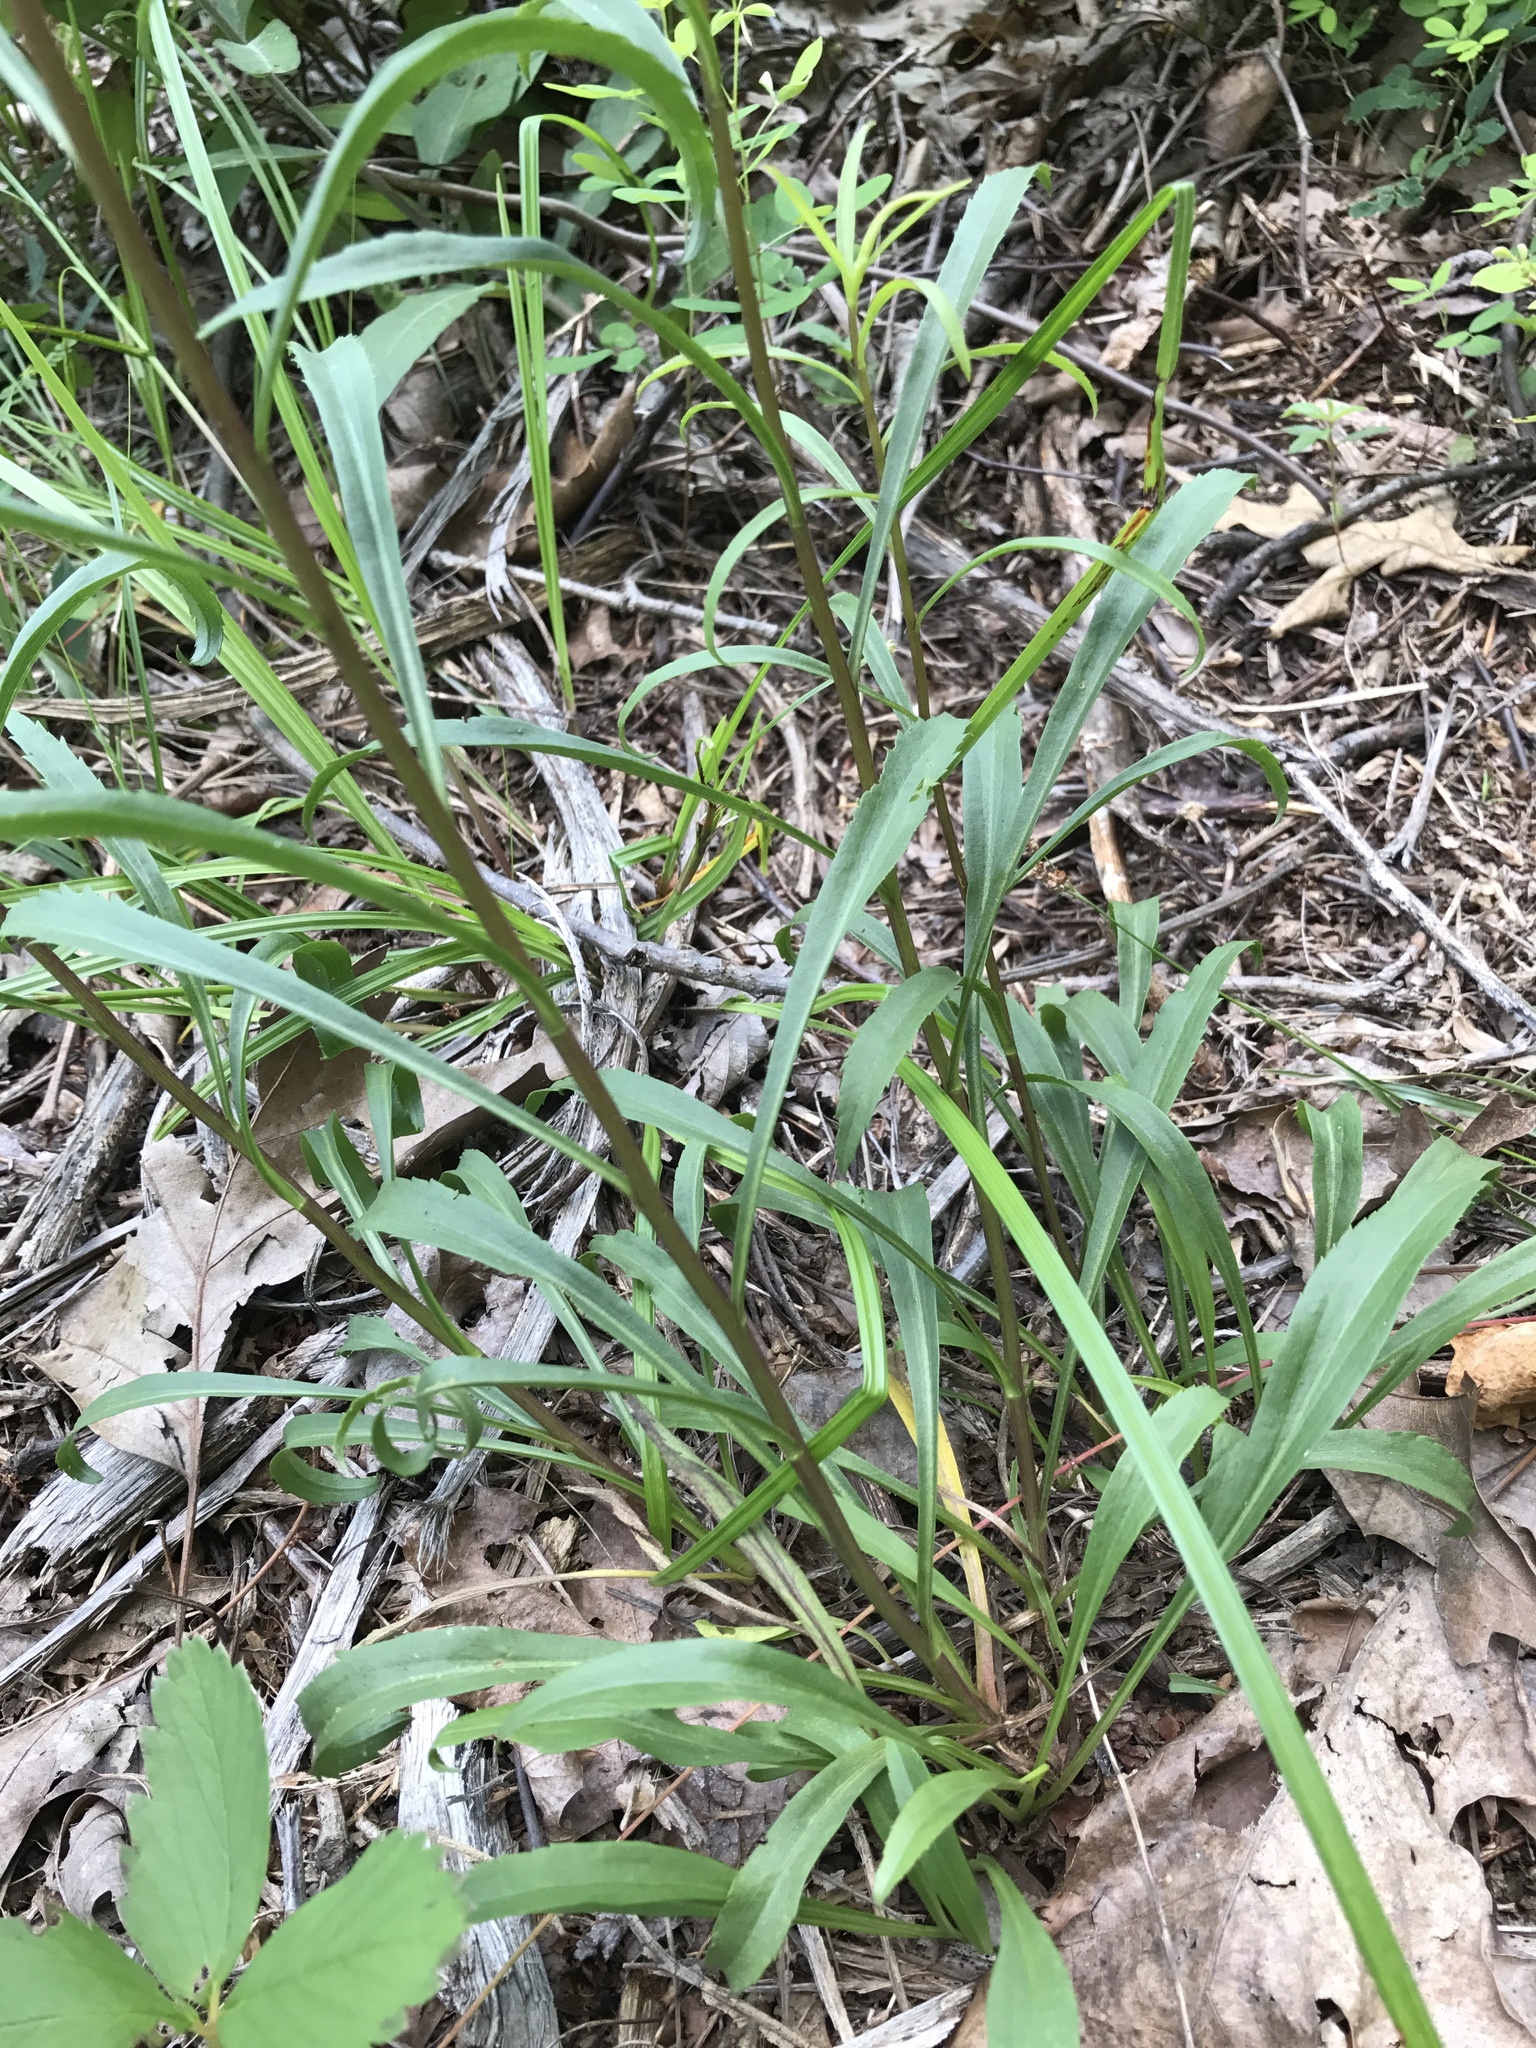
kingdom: Plantae
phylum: Tracheophyta
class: Magnoliopsida
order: Asterales
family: Asteraceae
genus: Solidago
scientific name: Solidago pinetorum
